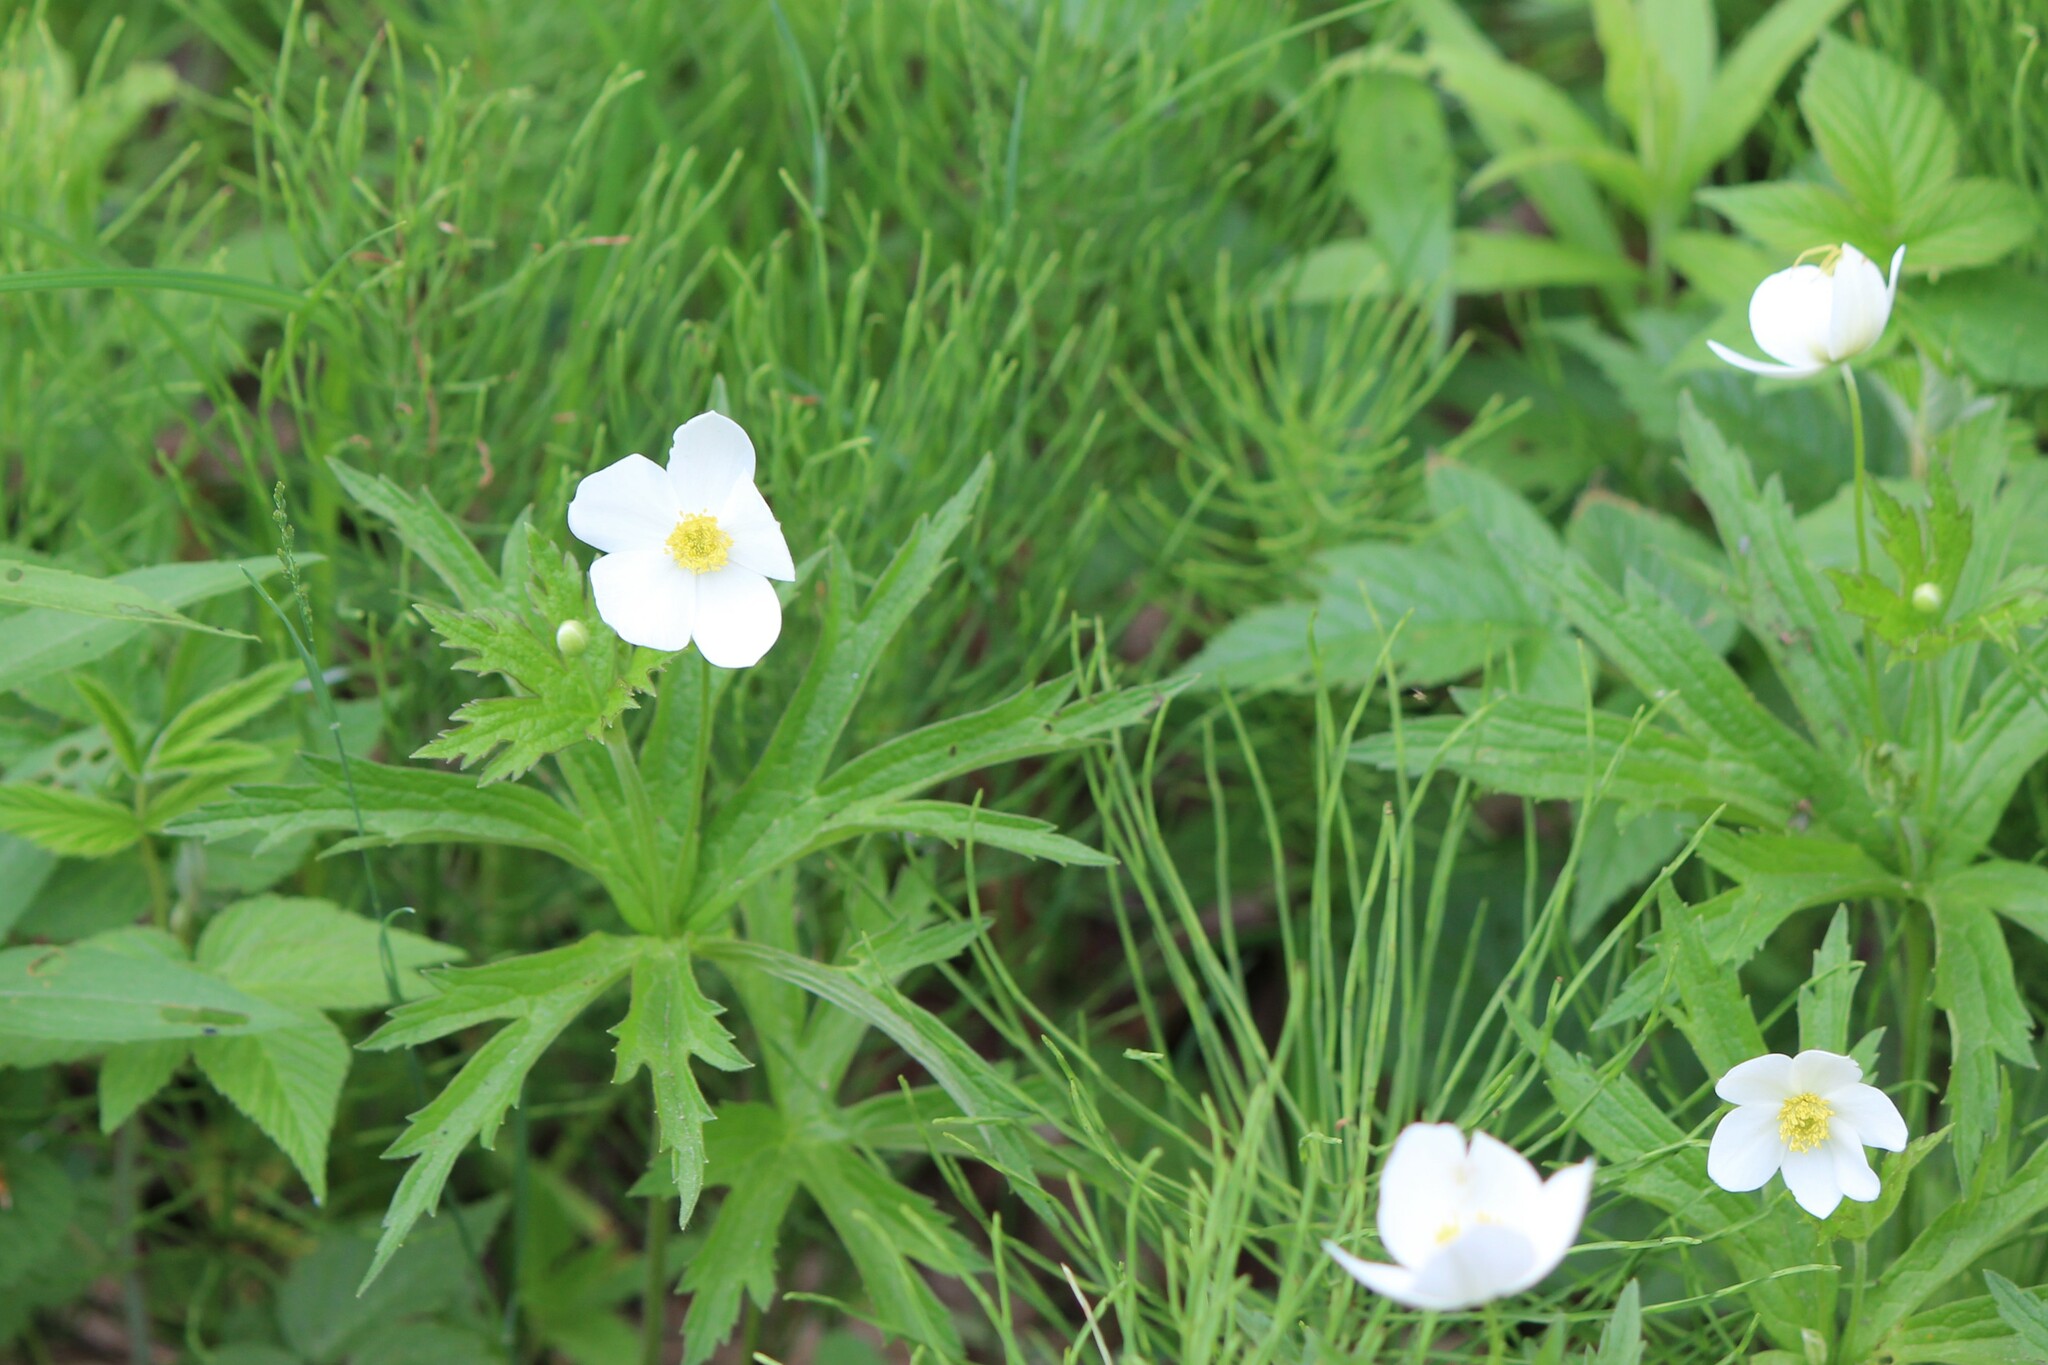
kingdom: Plantae
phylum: Tracheophyta
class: Magnoliopsida
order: Ranunculales
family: Ranunculaceae
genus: Anemonastrum
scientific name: Anemonastrum canadense
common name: Canada anemone
